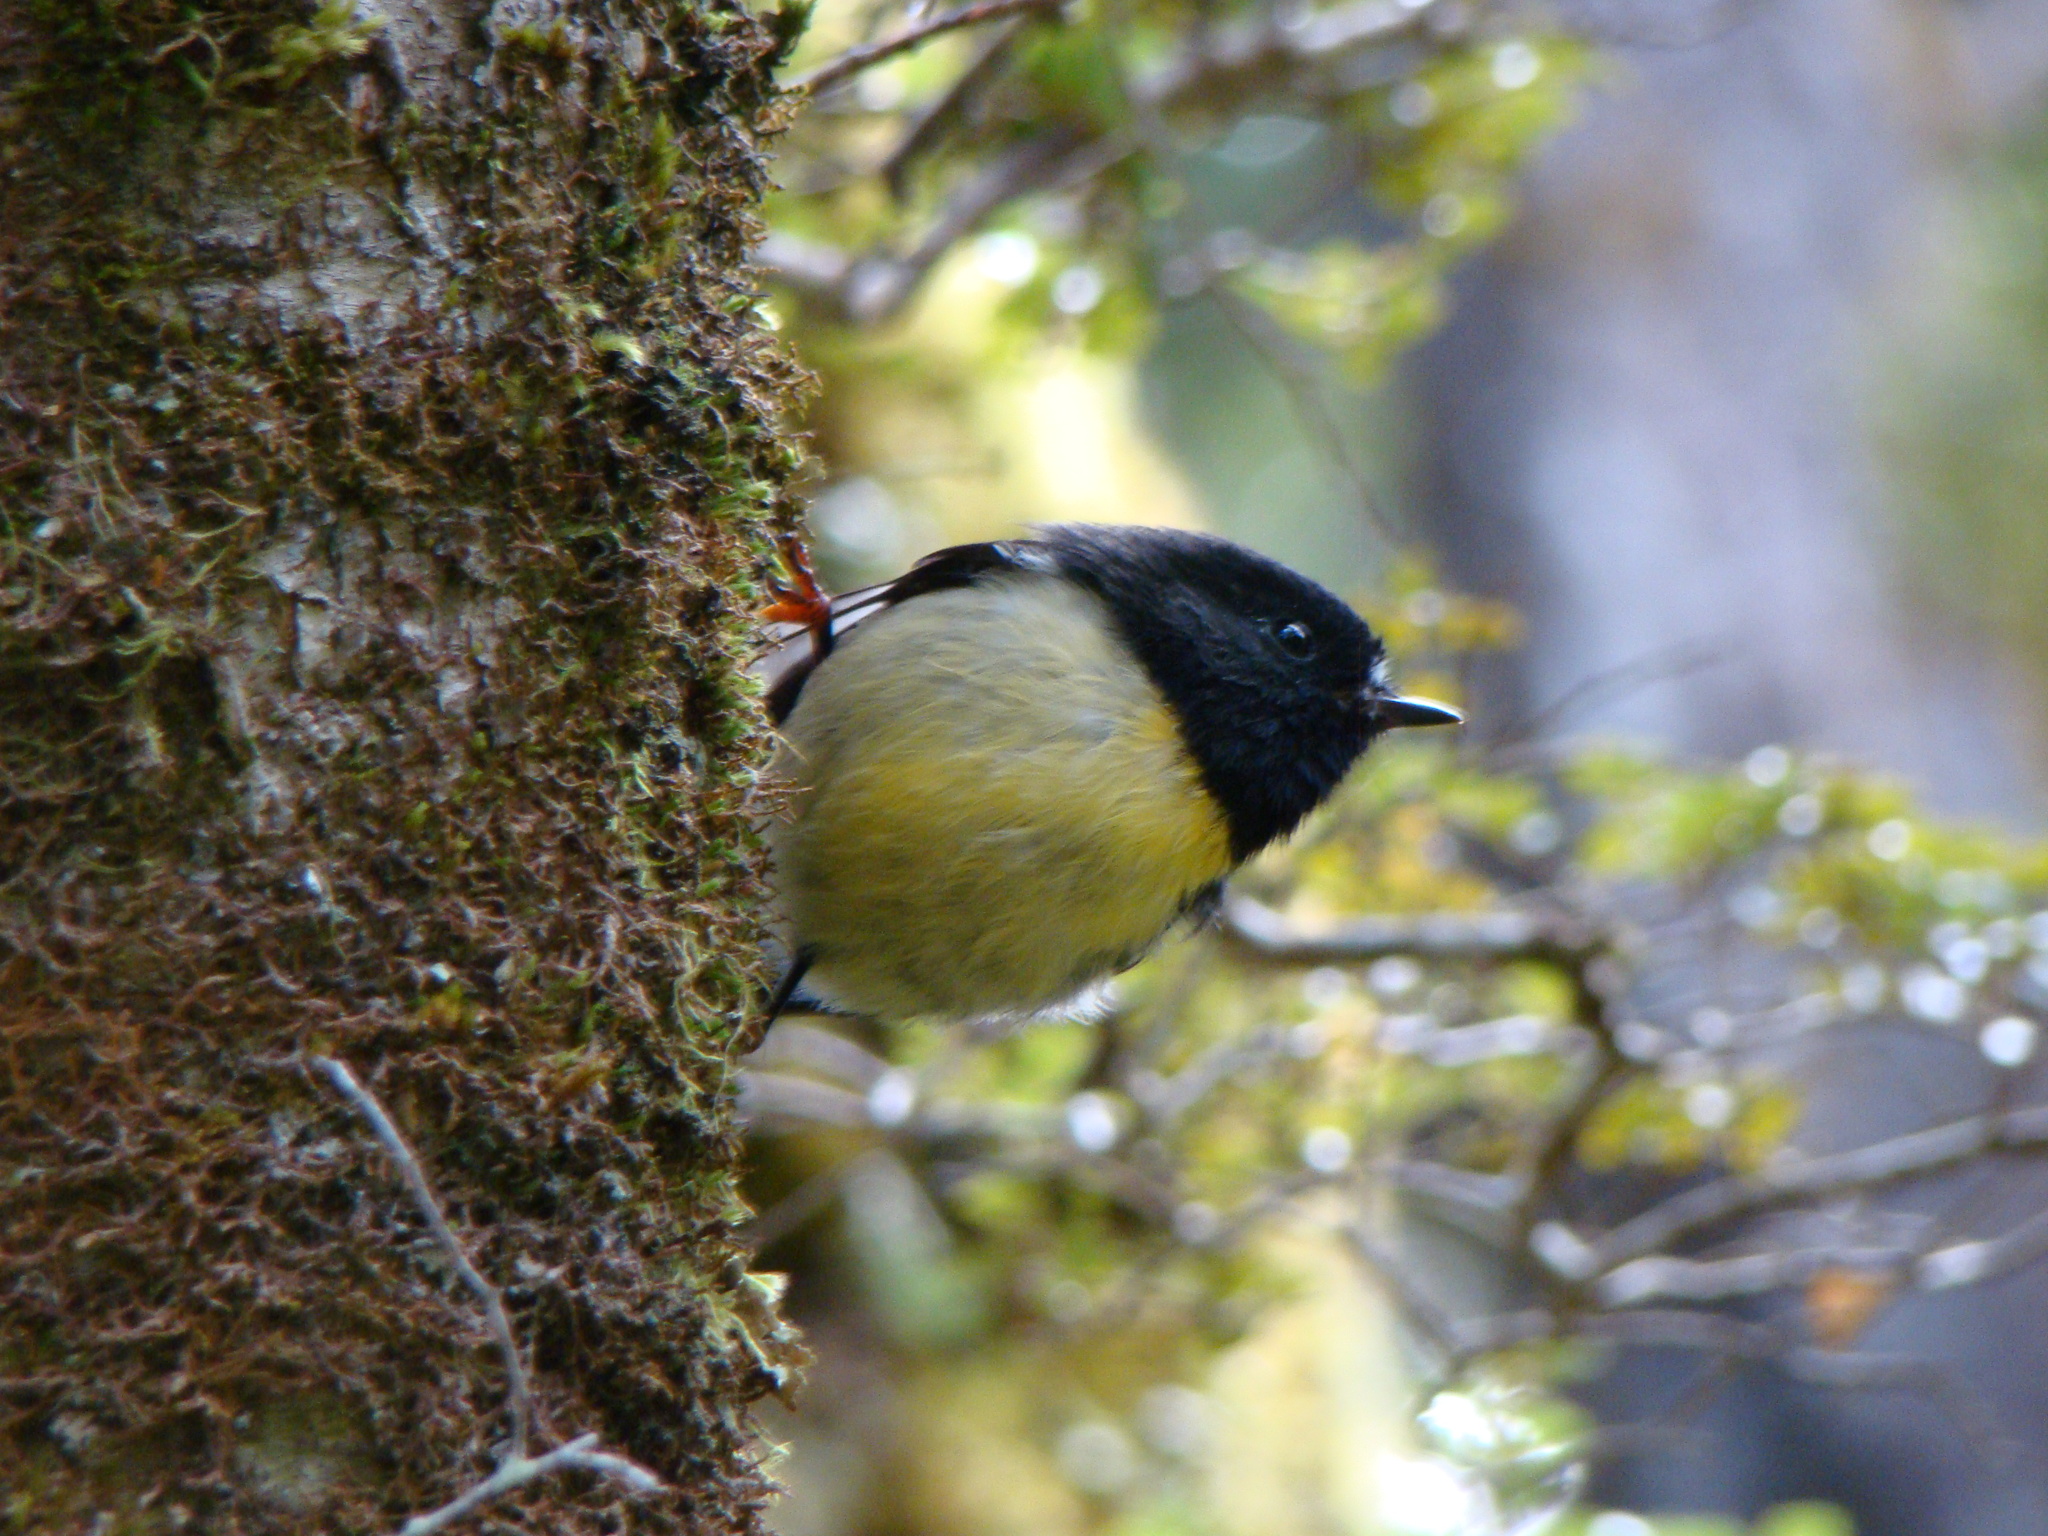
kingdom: Animalia
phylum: Chordata
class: Aves
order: Passeriformes
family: Petroicidae
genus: Petroica
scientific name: Petroica macrocephala
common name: Tomtit
